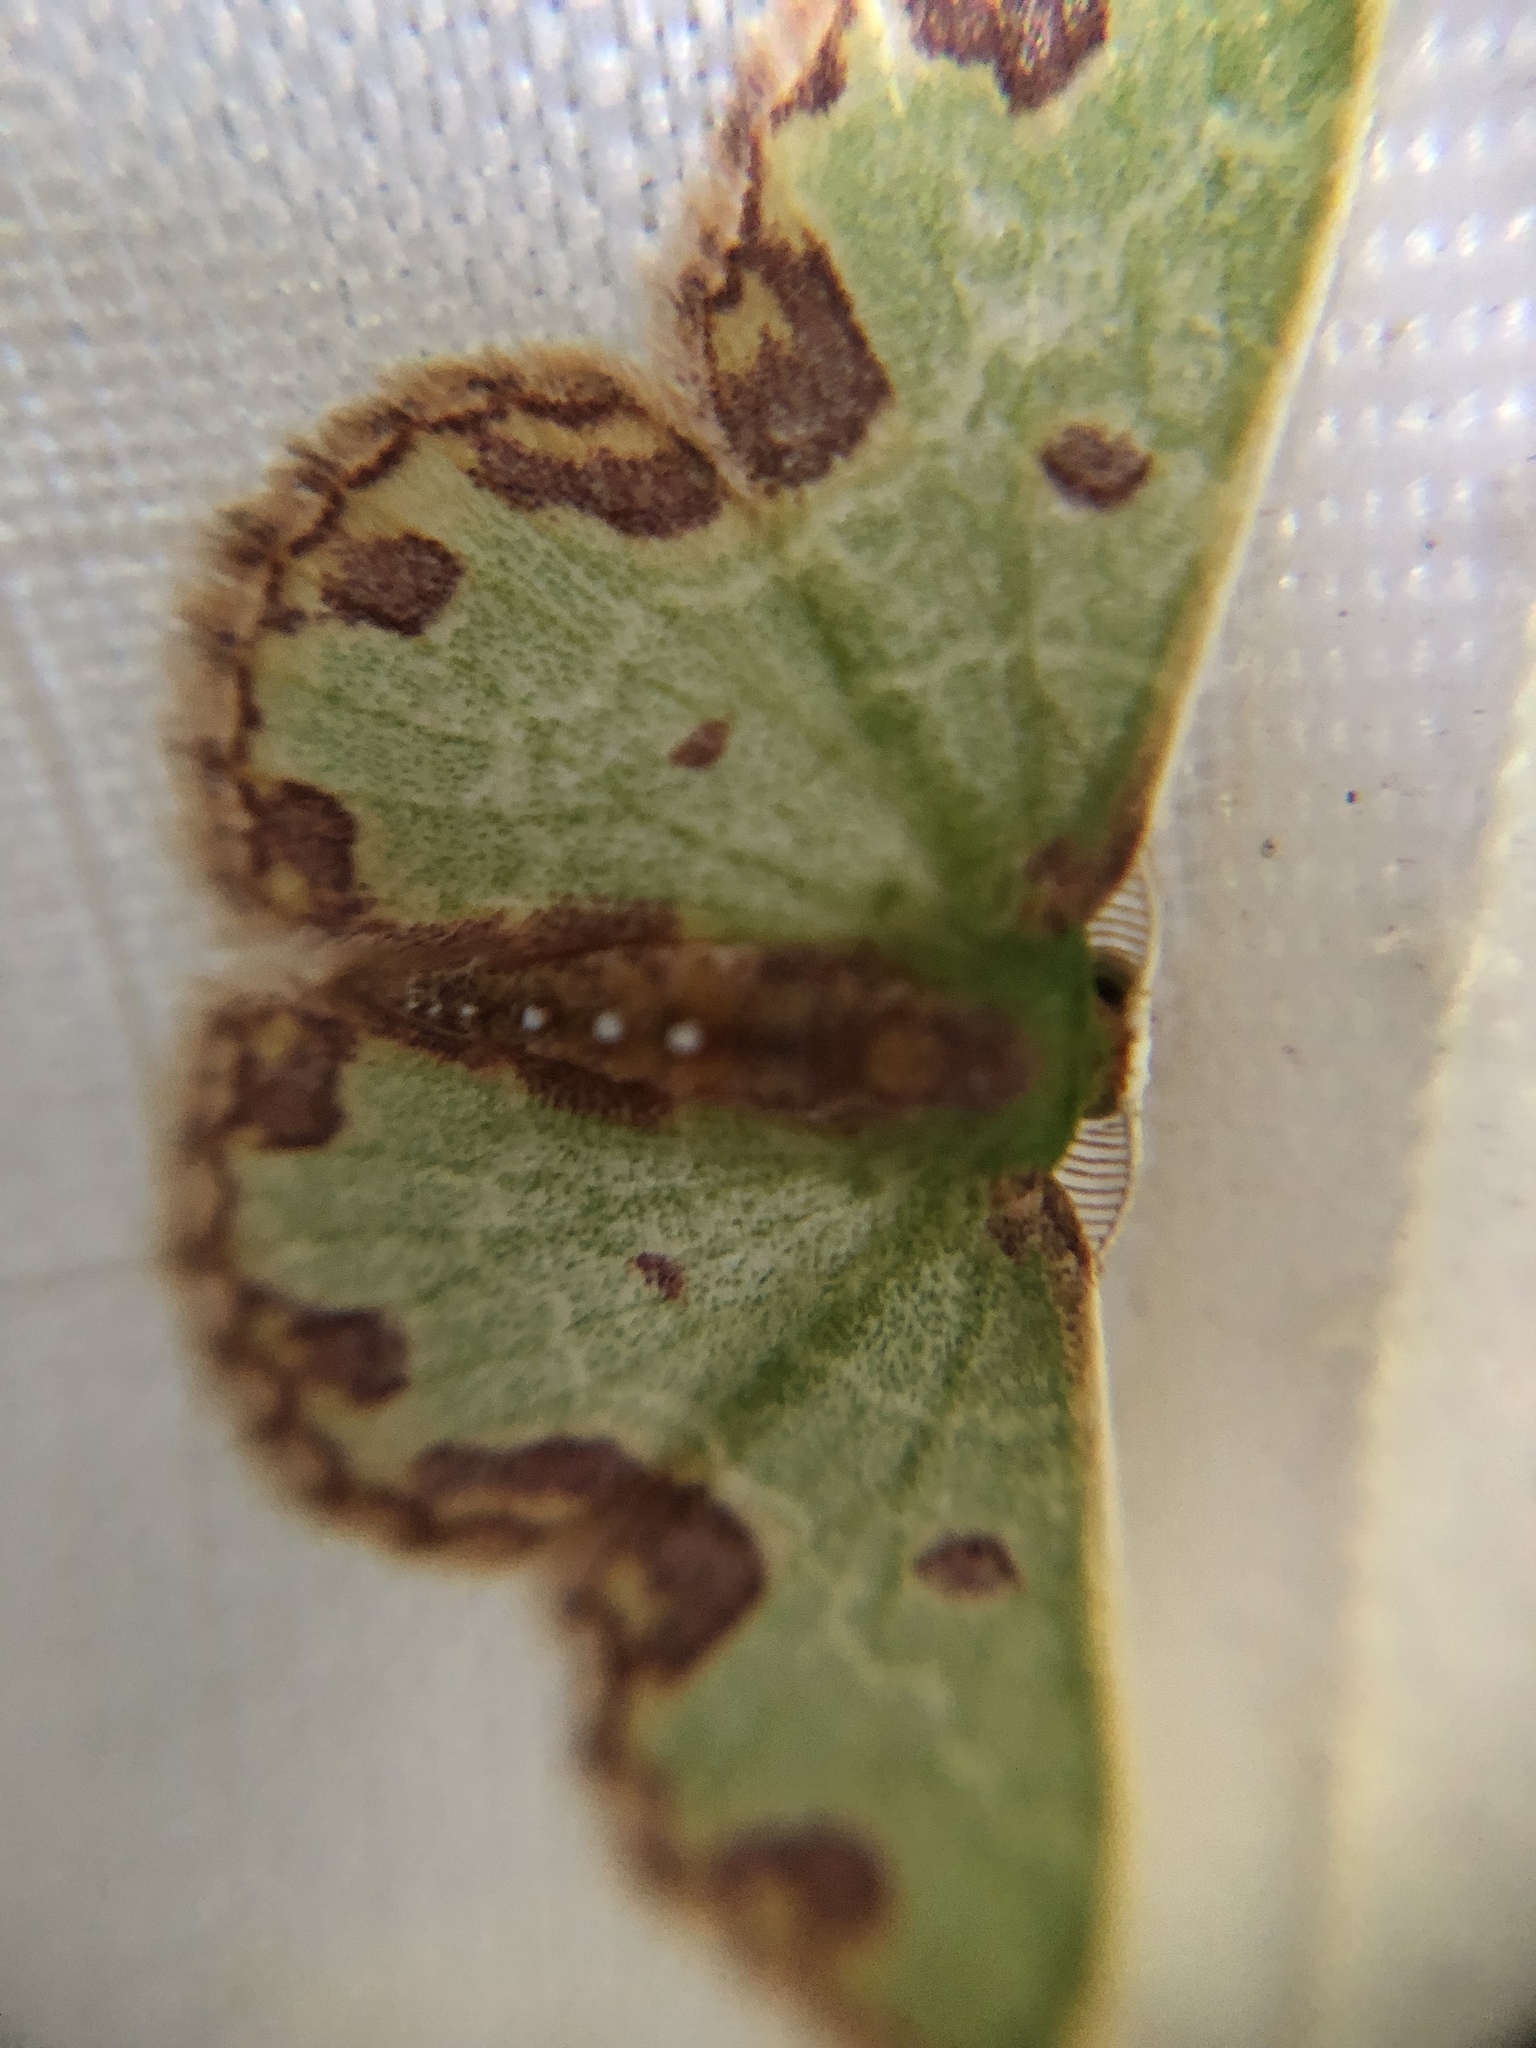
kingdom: Animalia
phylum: Arthropoda
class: Insecta
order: Lepidoptera
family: Geometridae
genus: Synchlora
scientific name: Synchlora gerularia
